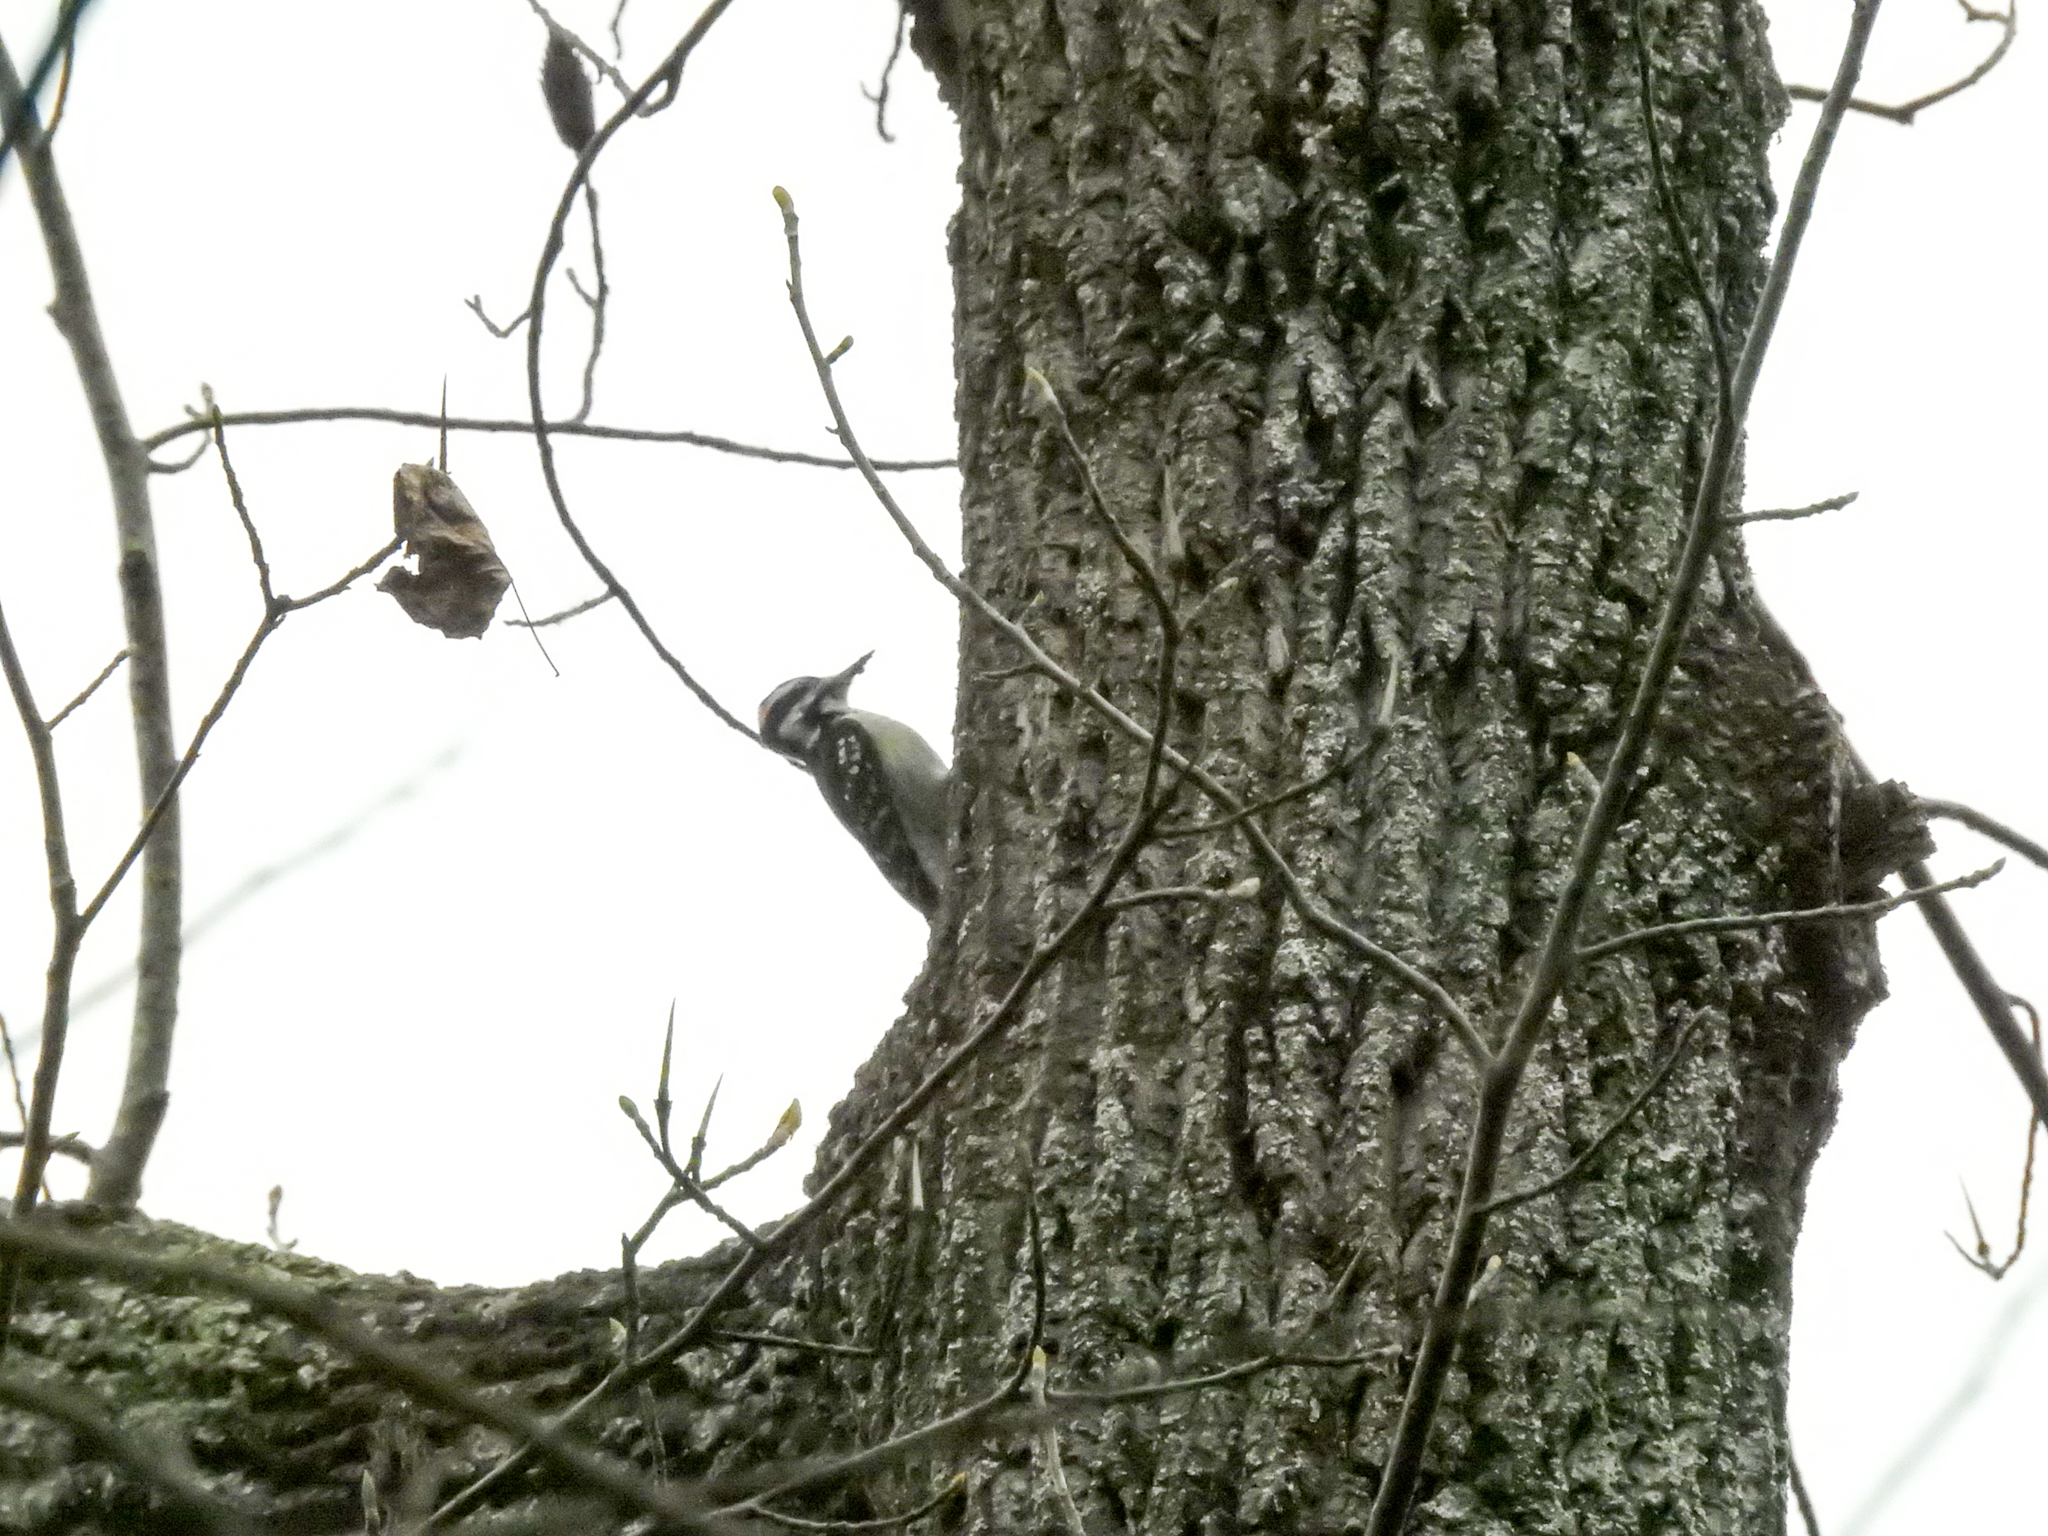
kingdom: Animalia
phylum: Chordata
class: Aves
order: Piciformes
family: Picidae
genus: Leuconotopicus
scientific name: Leuconotopicus villosus
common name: Hairy woodpecker
